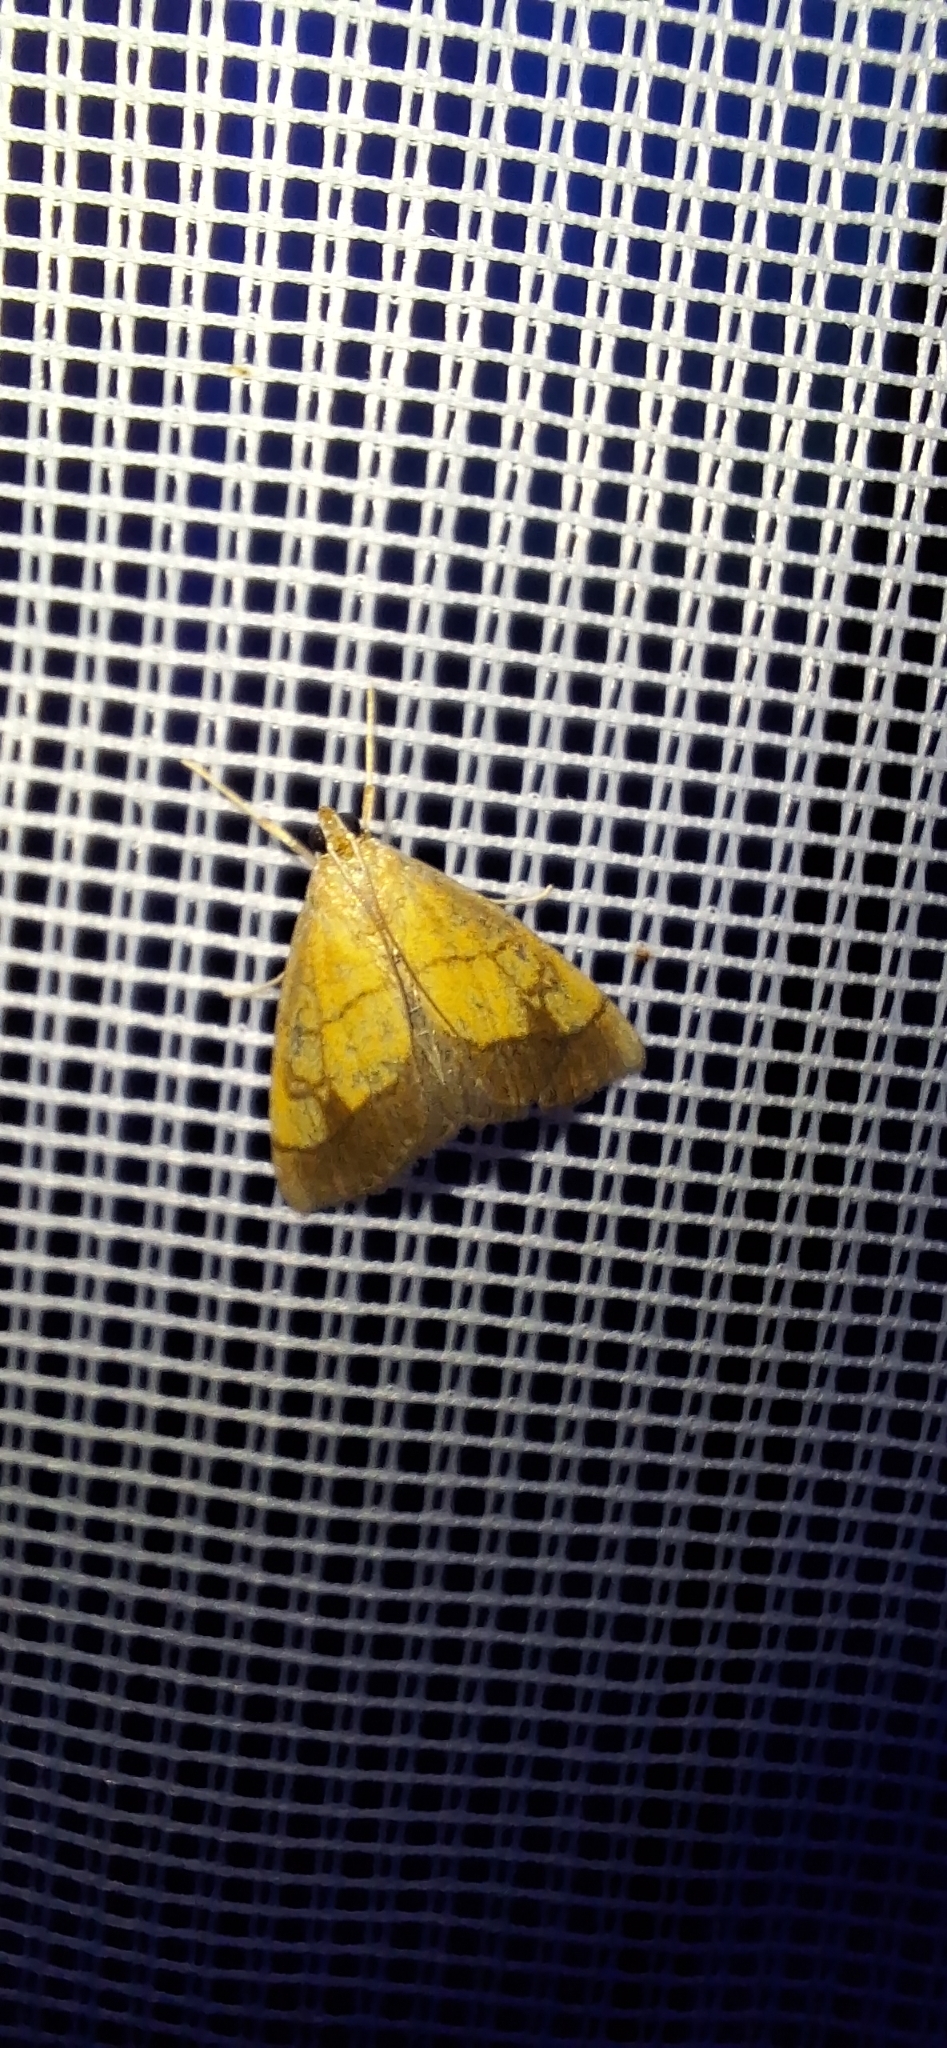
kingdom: Animalia
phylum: Arthropoda
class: Insecta
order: Lepidoptera
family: Crambidae
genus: Evergestis
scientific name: Evergestis limbata
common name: Dark bordered pearl
